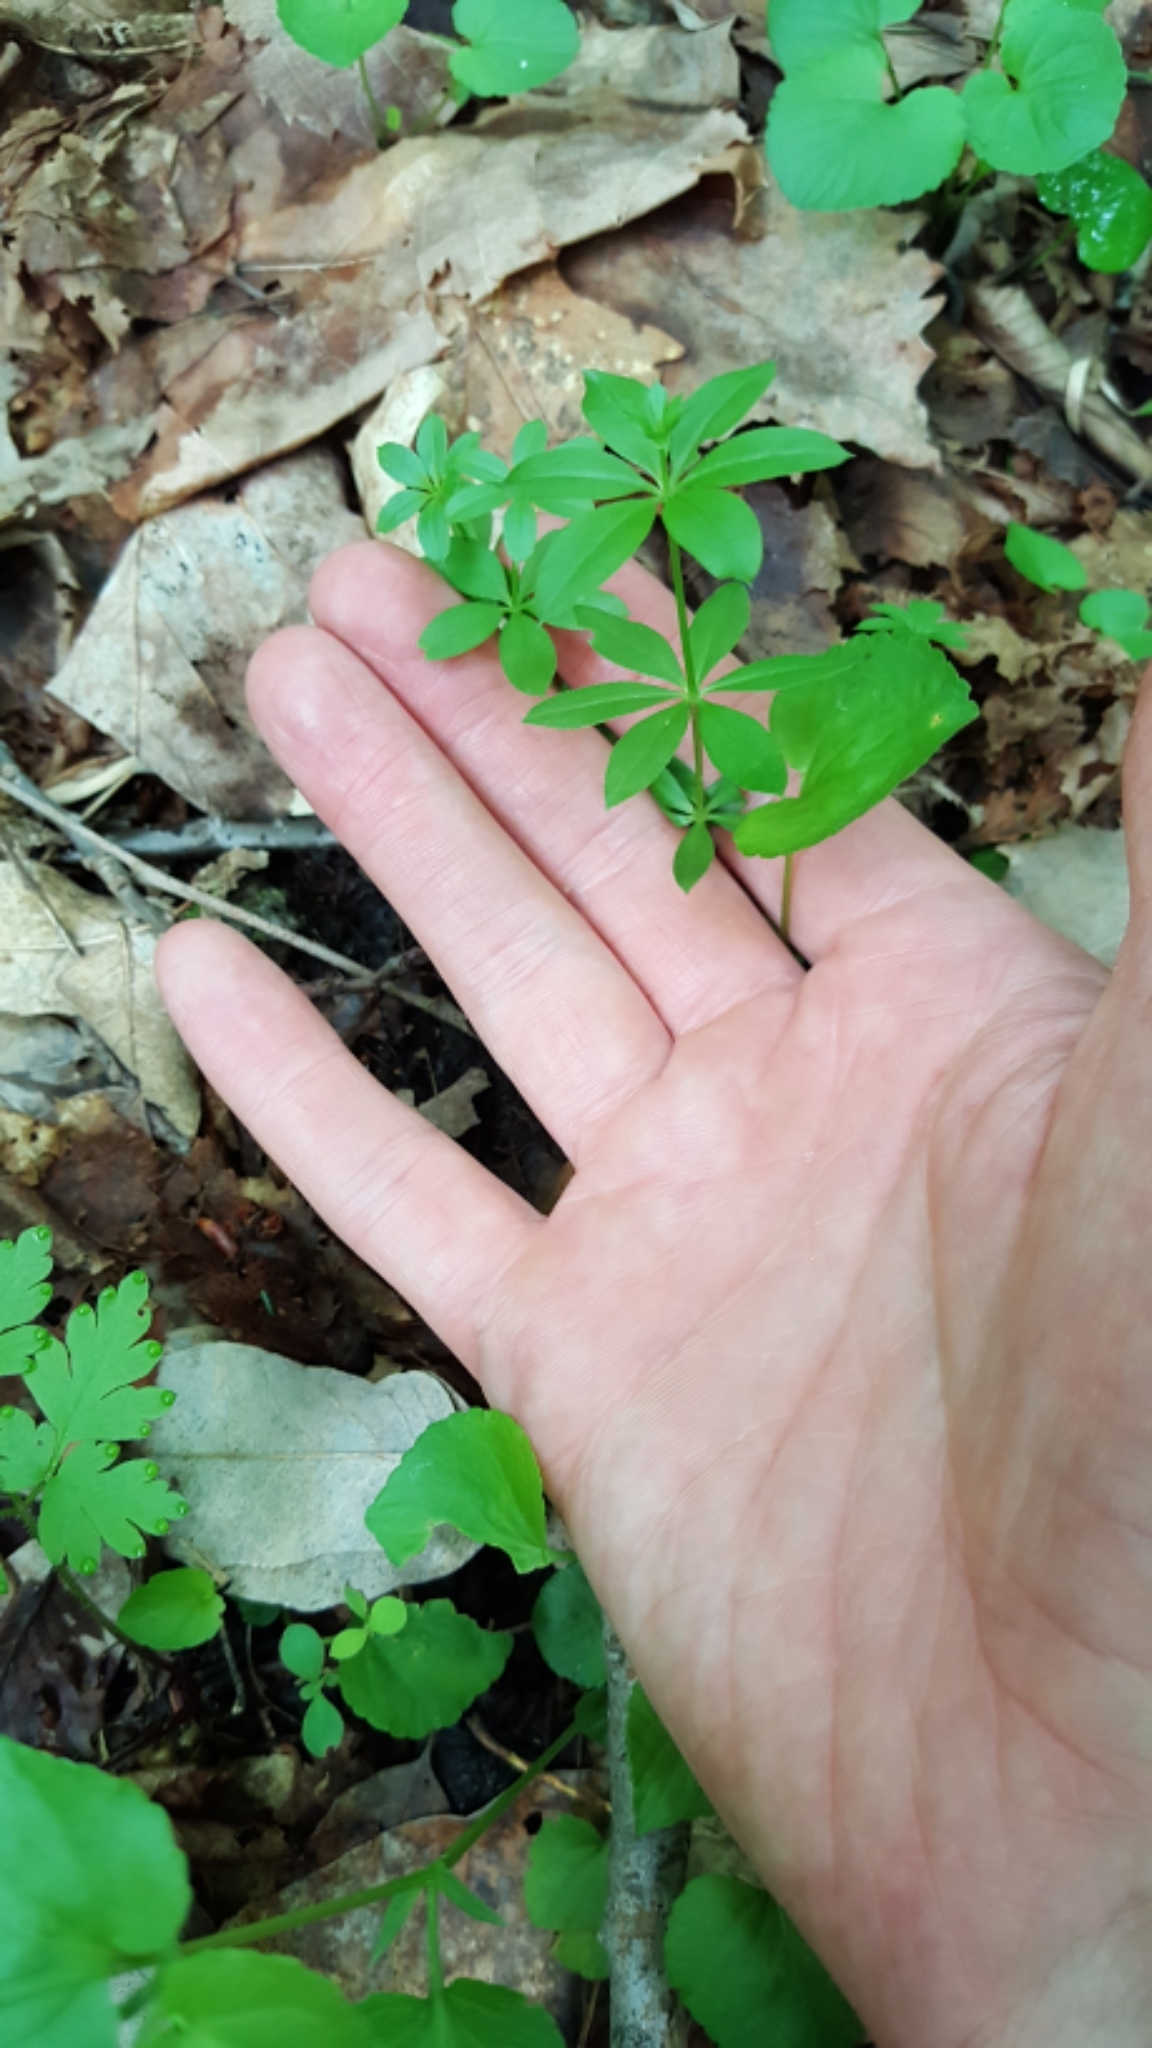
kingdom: Plantae
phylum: Tracheophyta
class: Magnoliopsida
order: Gentianales
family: Rubiaceae
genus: Galium
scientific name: Galium triflorum
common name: Fragrant bedstraw
